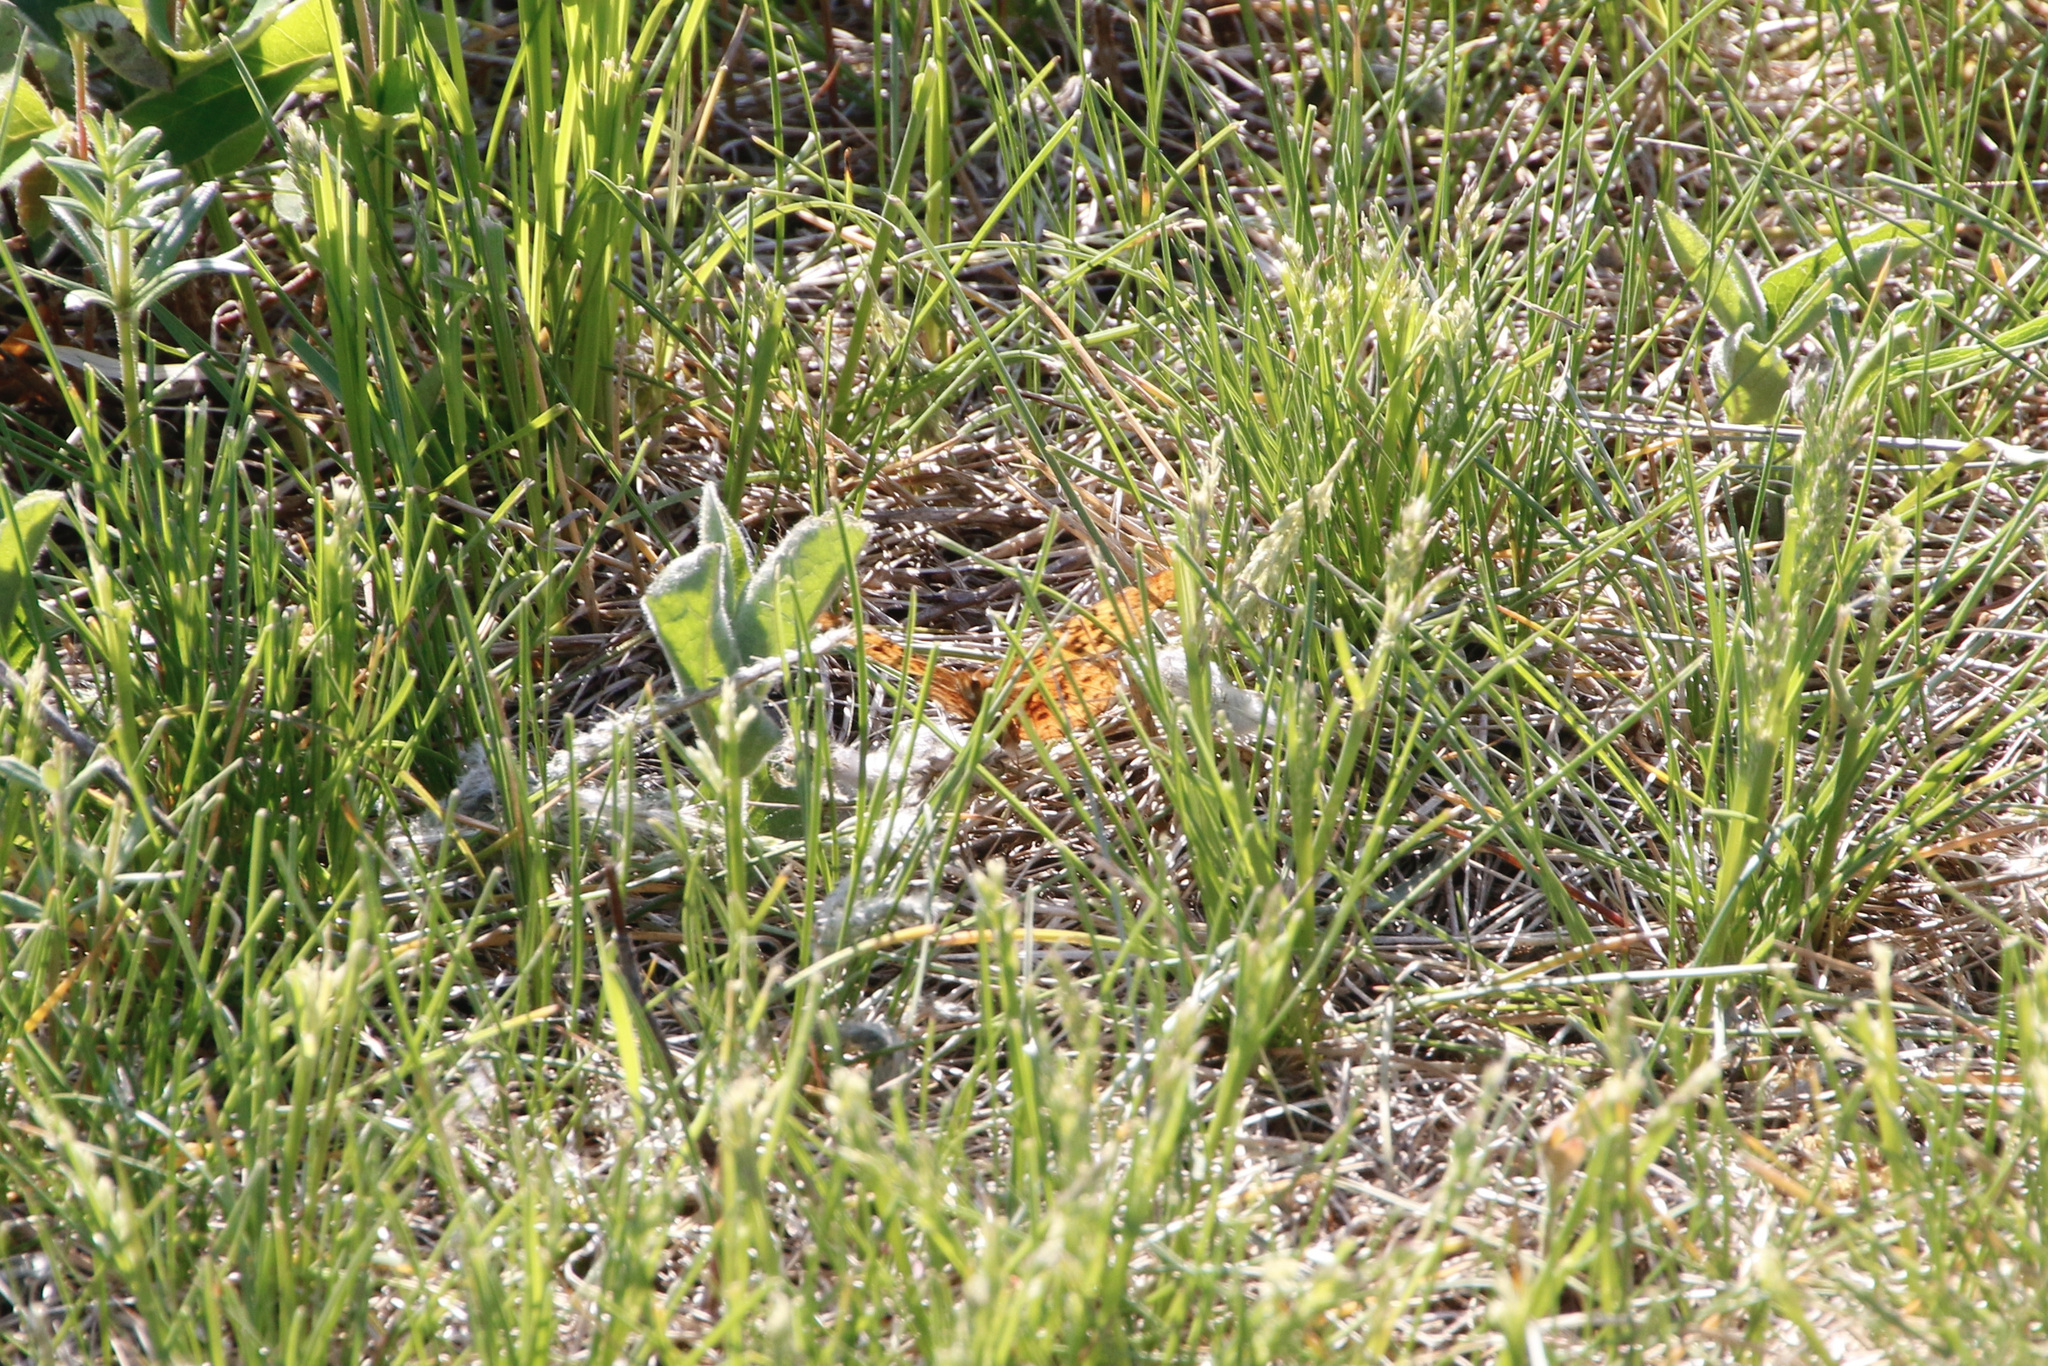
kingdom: Animalia
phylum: Arthropoda
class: Insecta
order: Lepidoptera
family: Nymphalidae
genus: Clossiana
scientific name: Clossiana toddi
